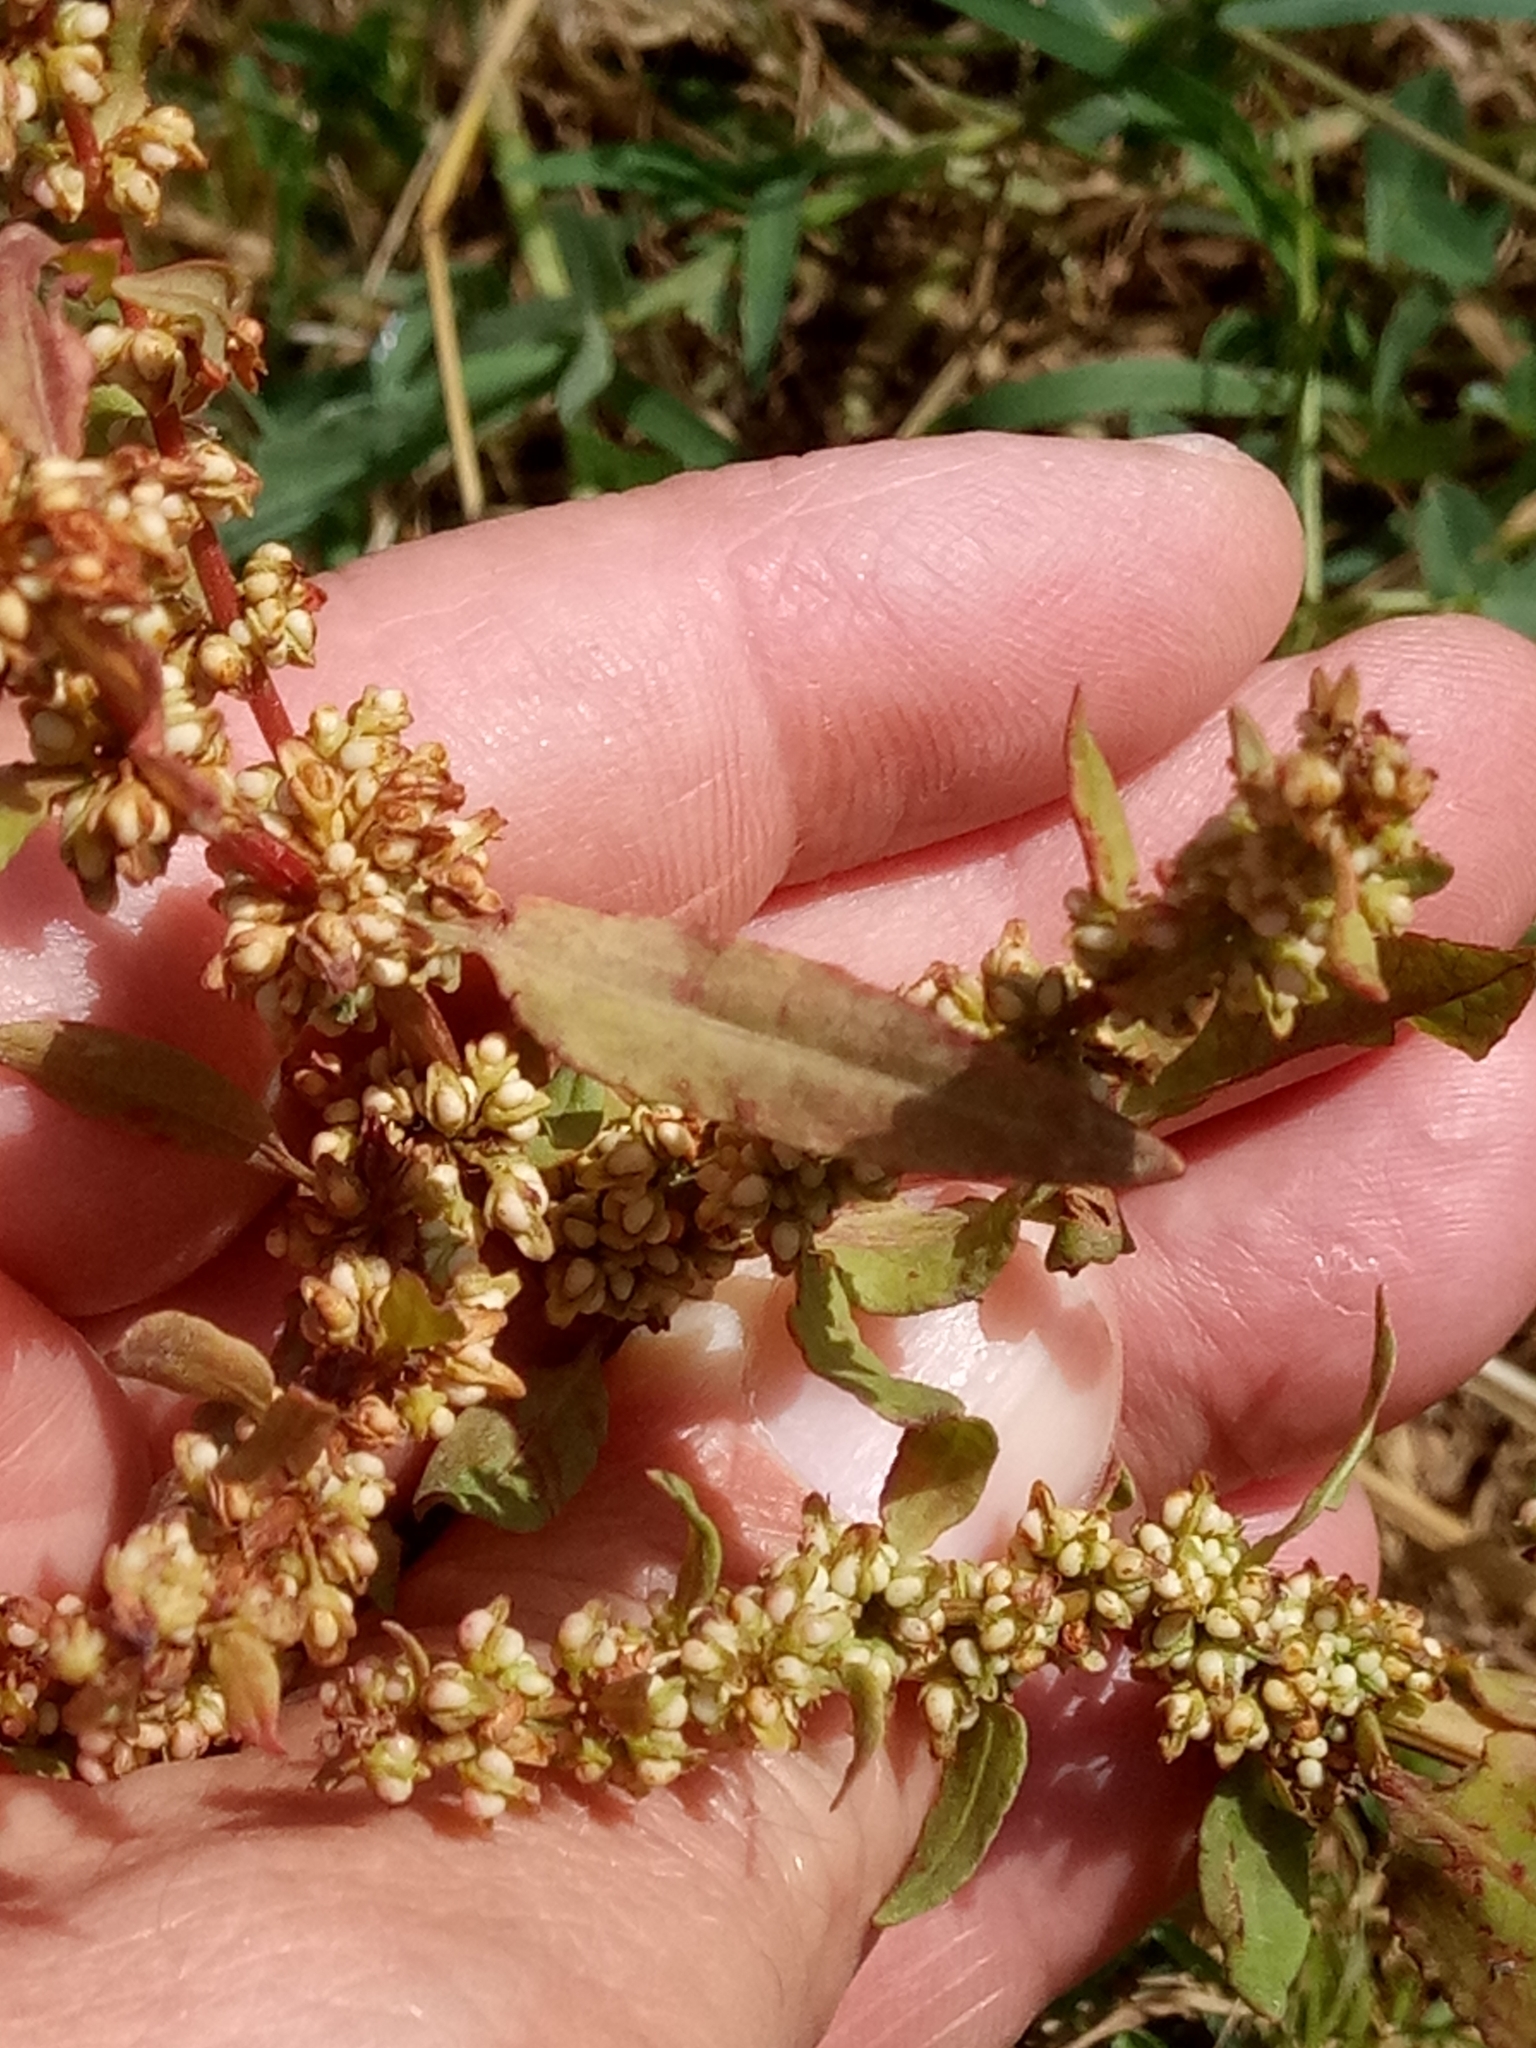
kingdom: Plantae
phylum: Tracheophyta
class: Magnoliopsida
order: Caryophyllales
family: Polygonaceae
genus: Rumex
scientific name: Rumex conglomeratus
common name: Clustered dock
